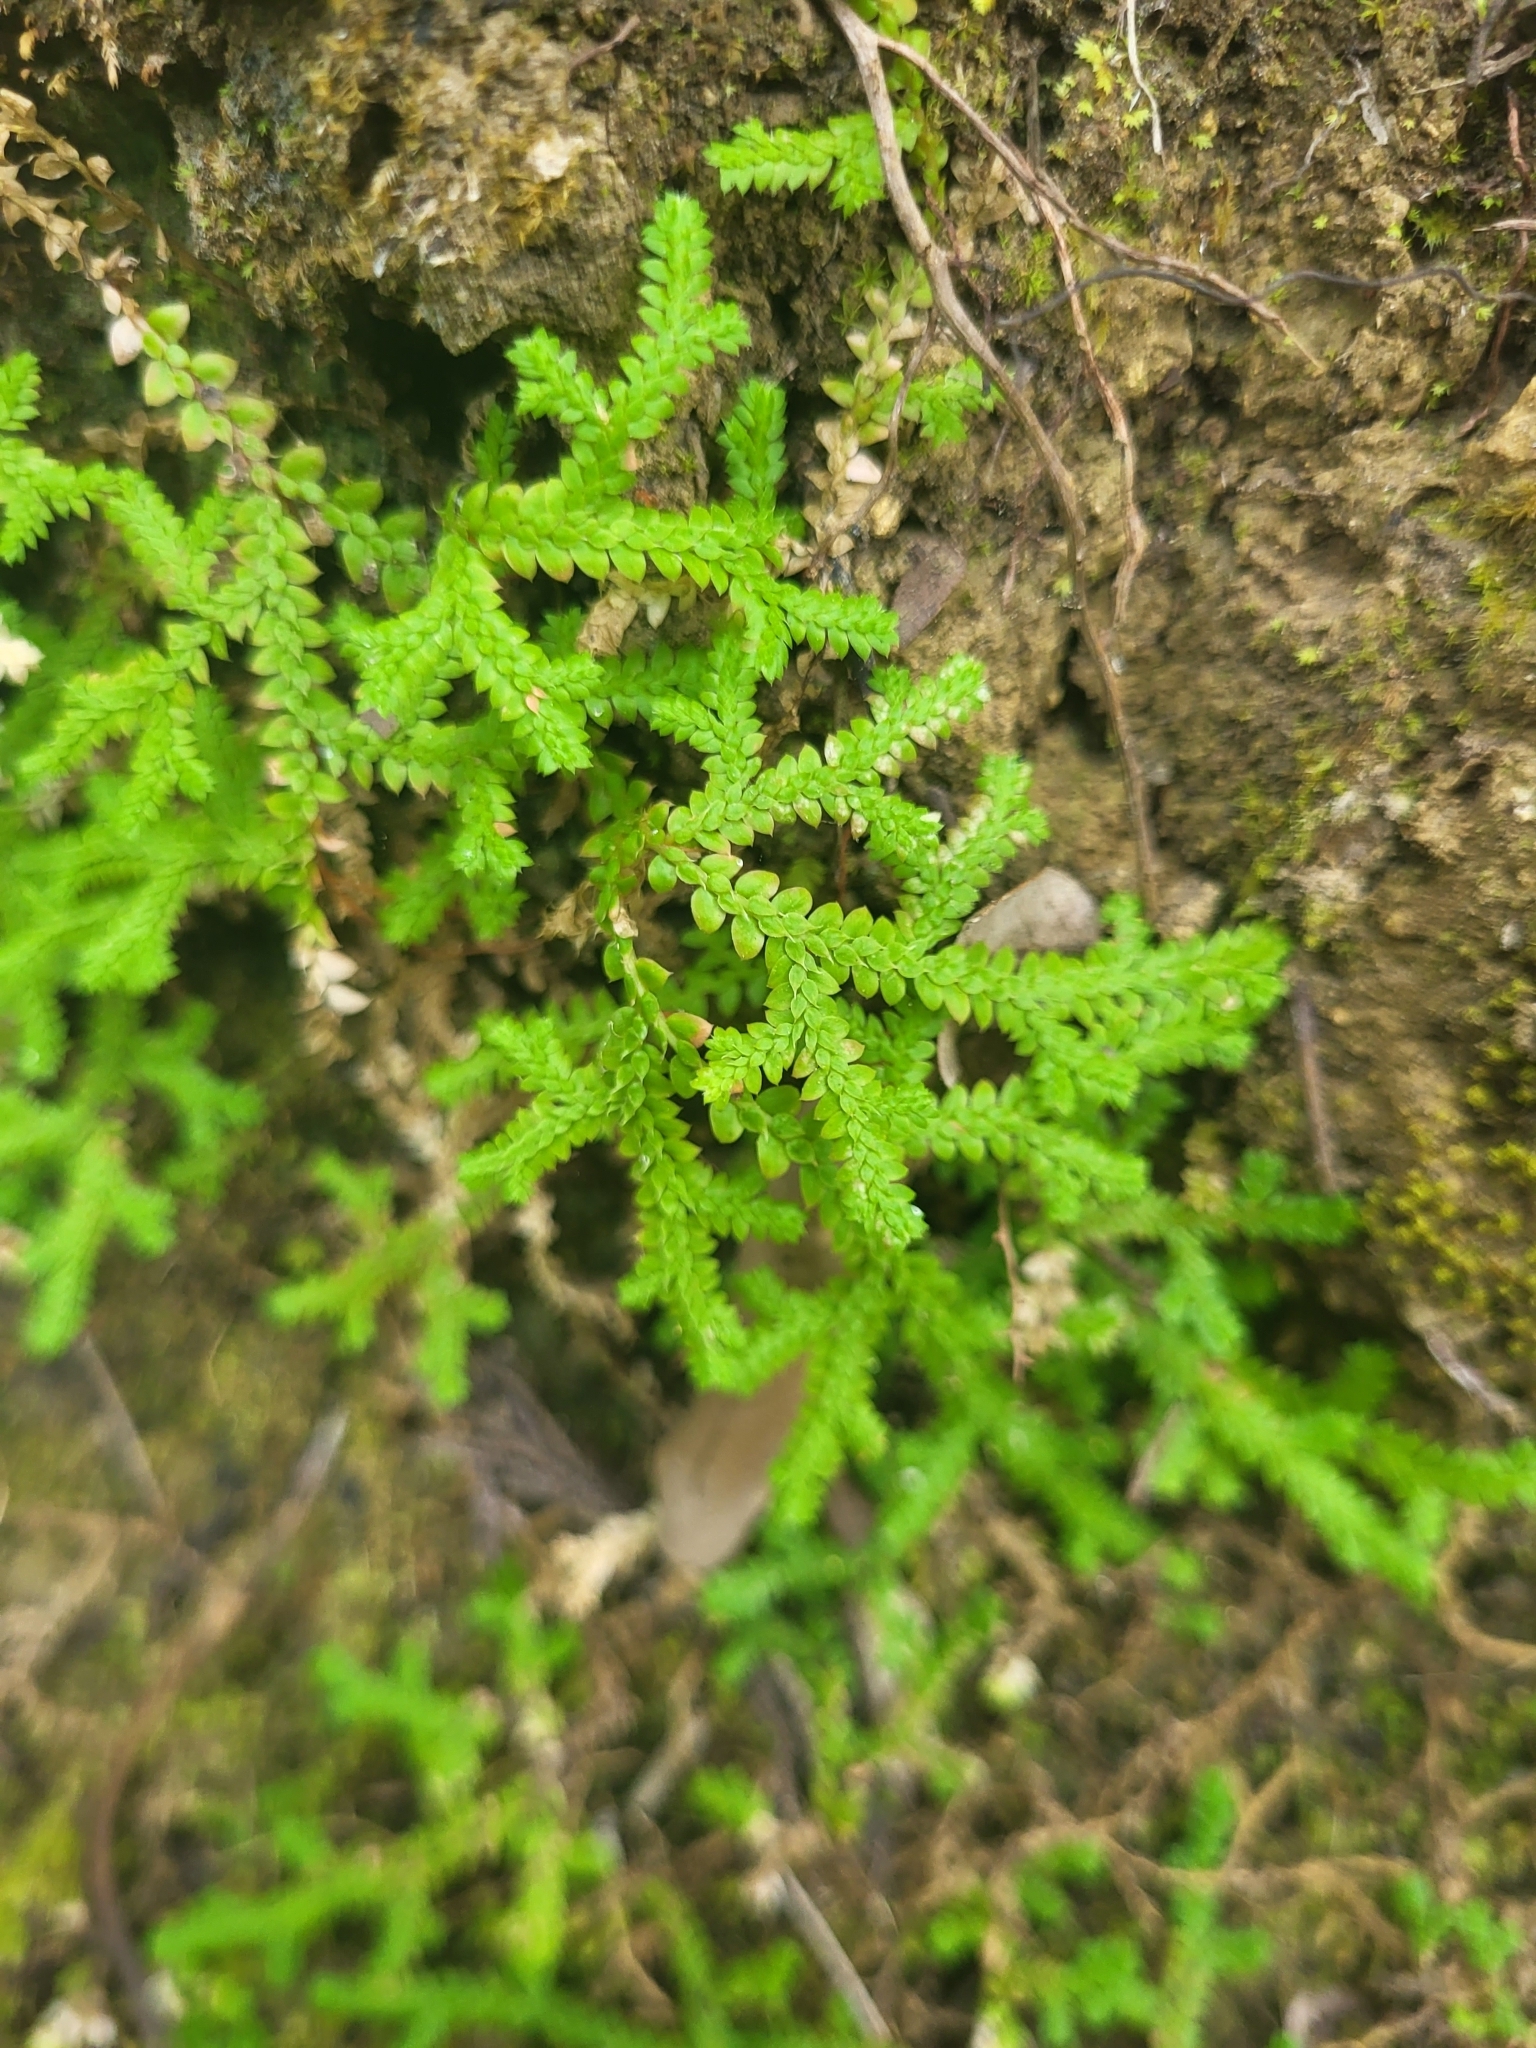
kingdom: Plantae
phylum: Tracheophyta
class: Lycopodiopsida
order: Selaginellales
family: Selaginellaceae
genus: Selaginella
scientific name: Selaginella denticulata
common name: Toothed-leaved clubmoss
